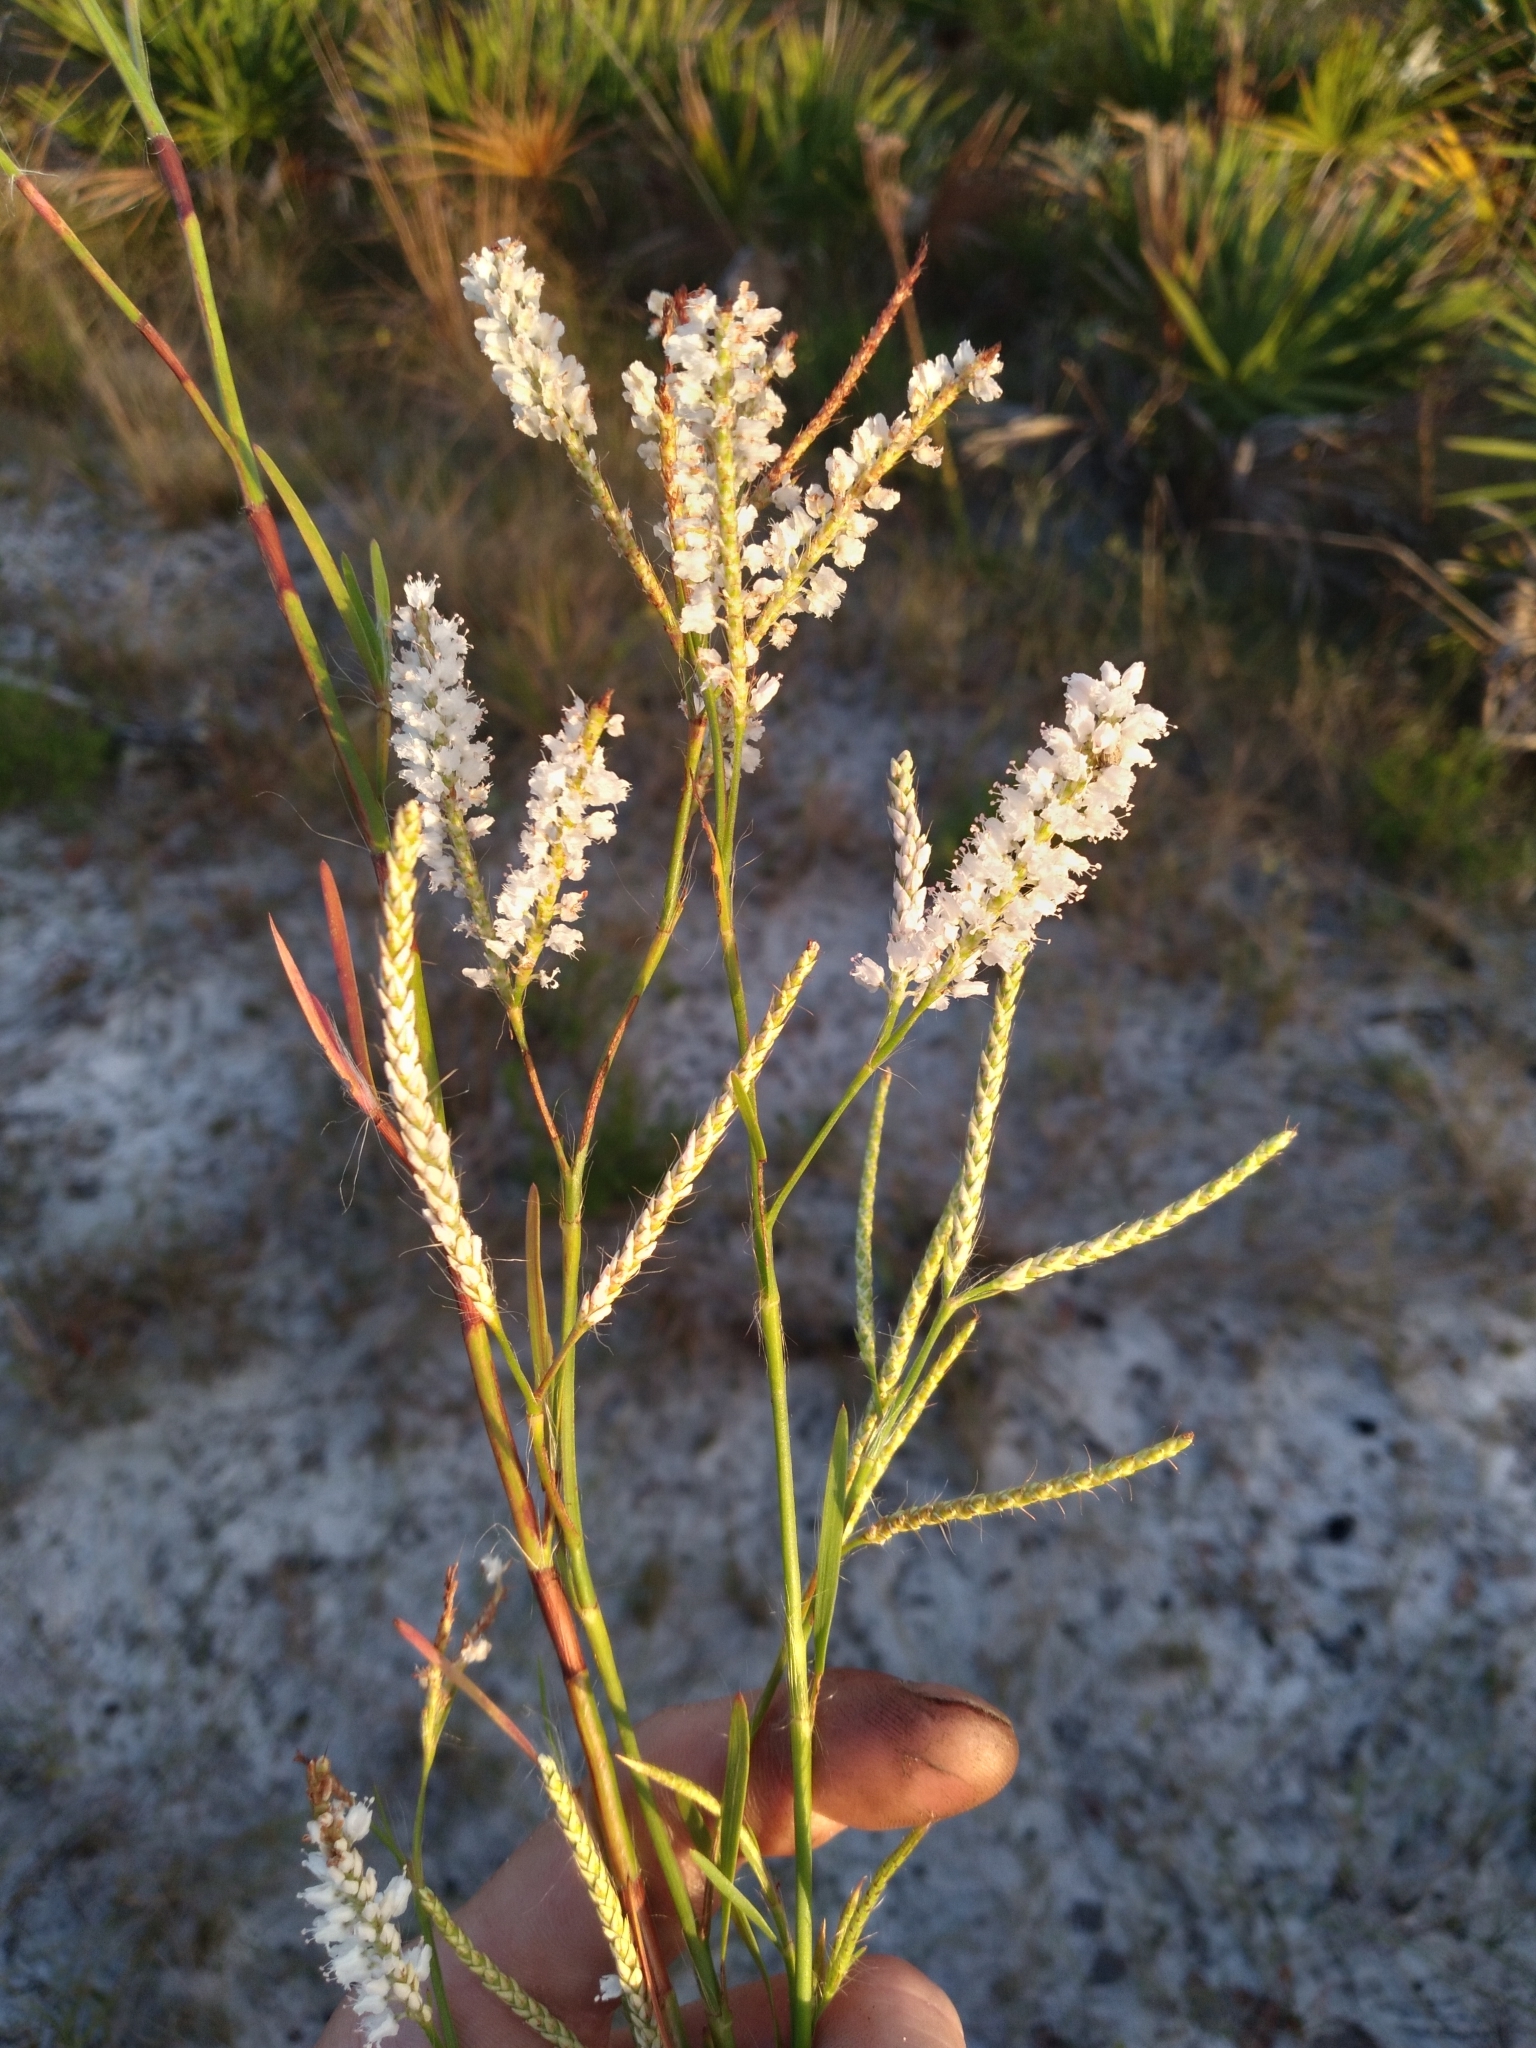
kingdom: Plantae
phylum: Tracheophyta
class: Magnoliopsida
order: Caryophyllales
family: Polygonaceae
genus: Polygonella
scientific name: Polygonella robusta
